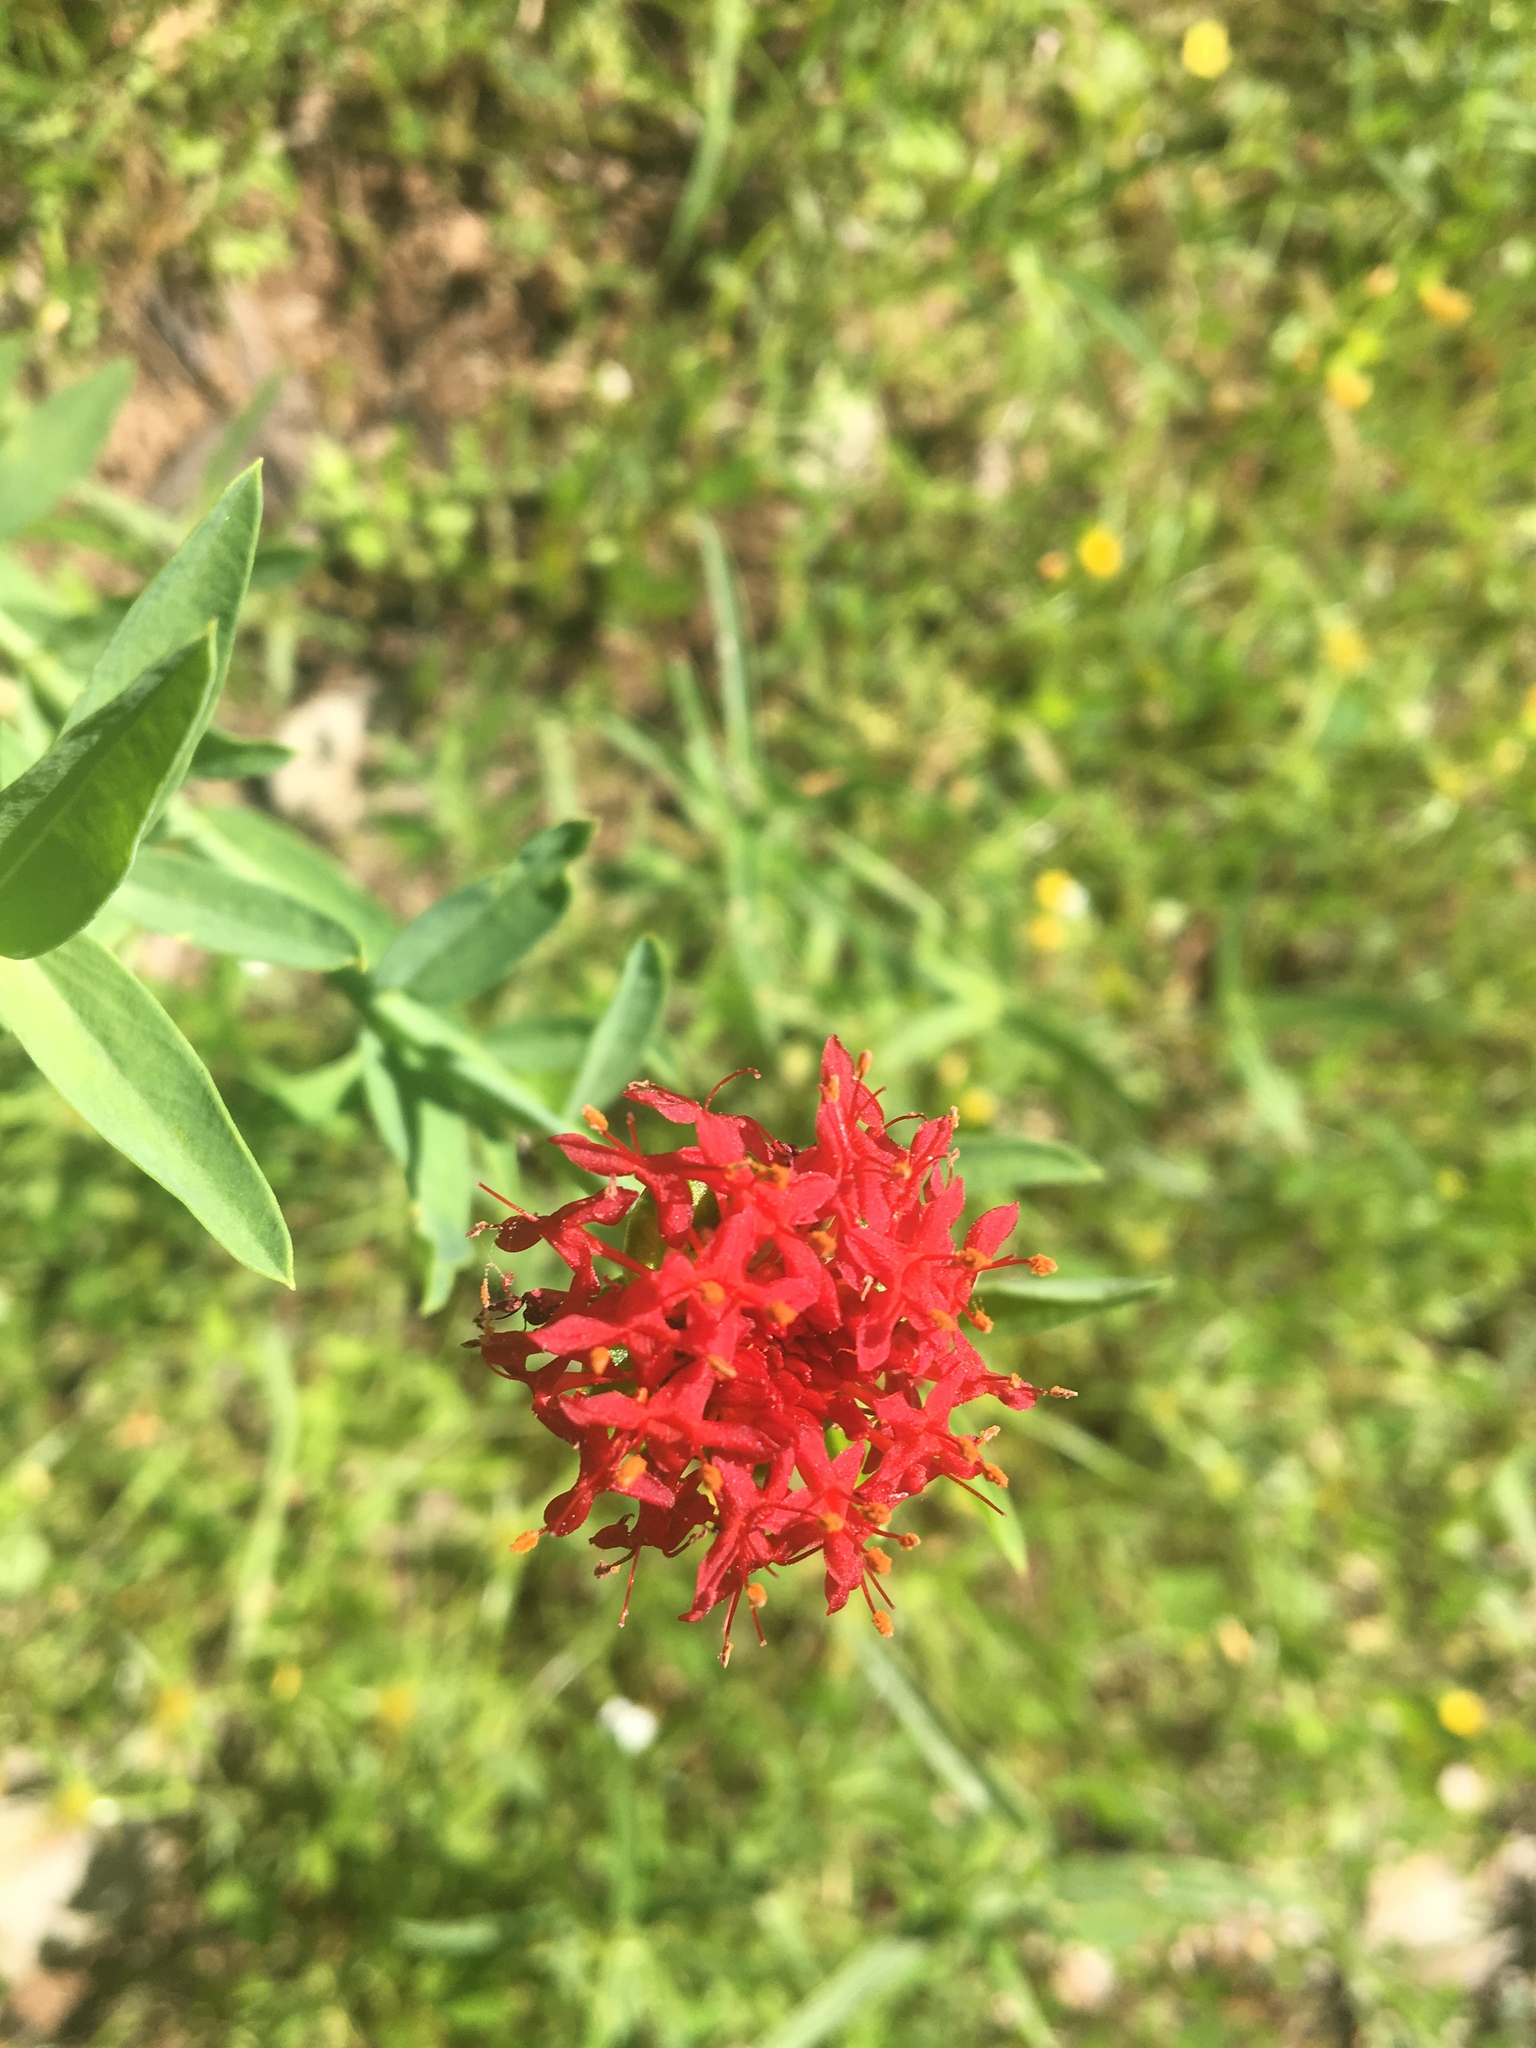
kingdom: Plantae
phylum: Tracheophyta
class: Magnoliopsida
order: Malvales
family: Thymelaeaceae
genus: Pimelea
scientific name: Pimelea punicea
